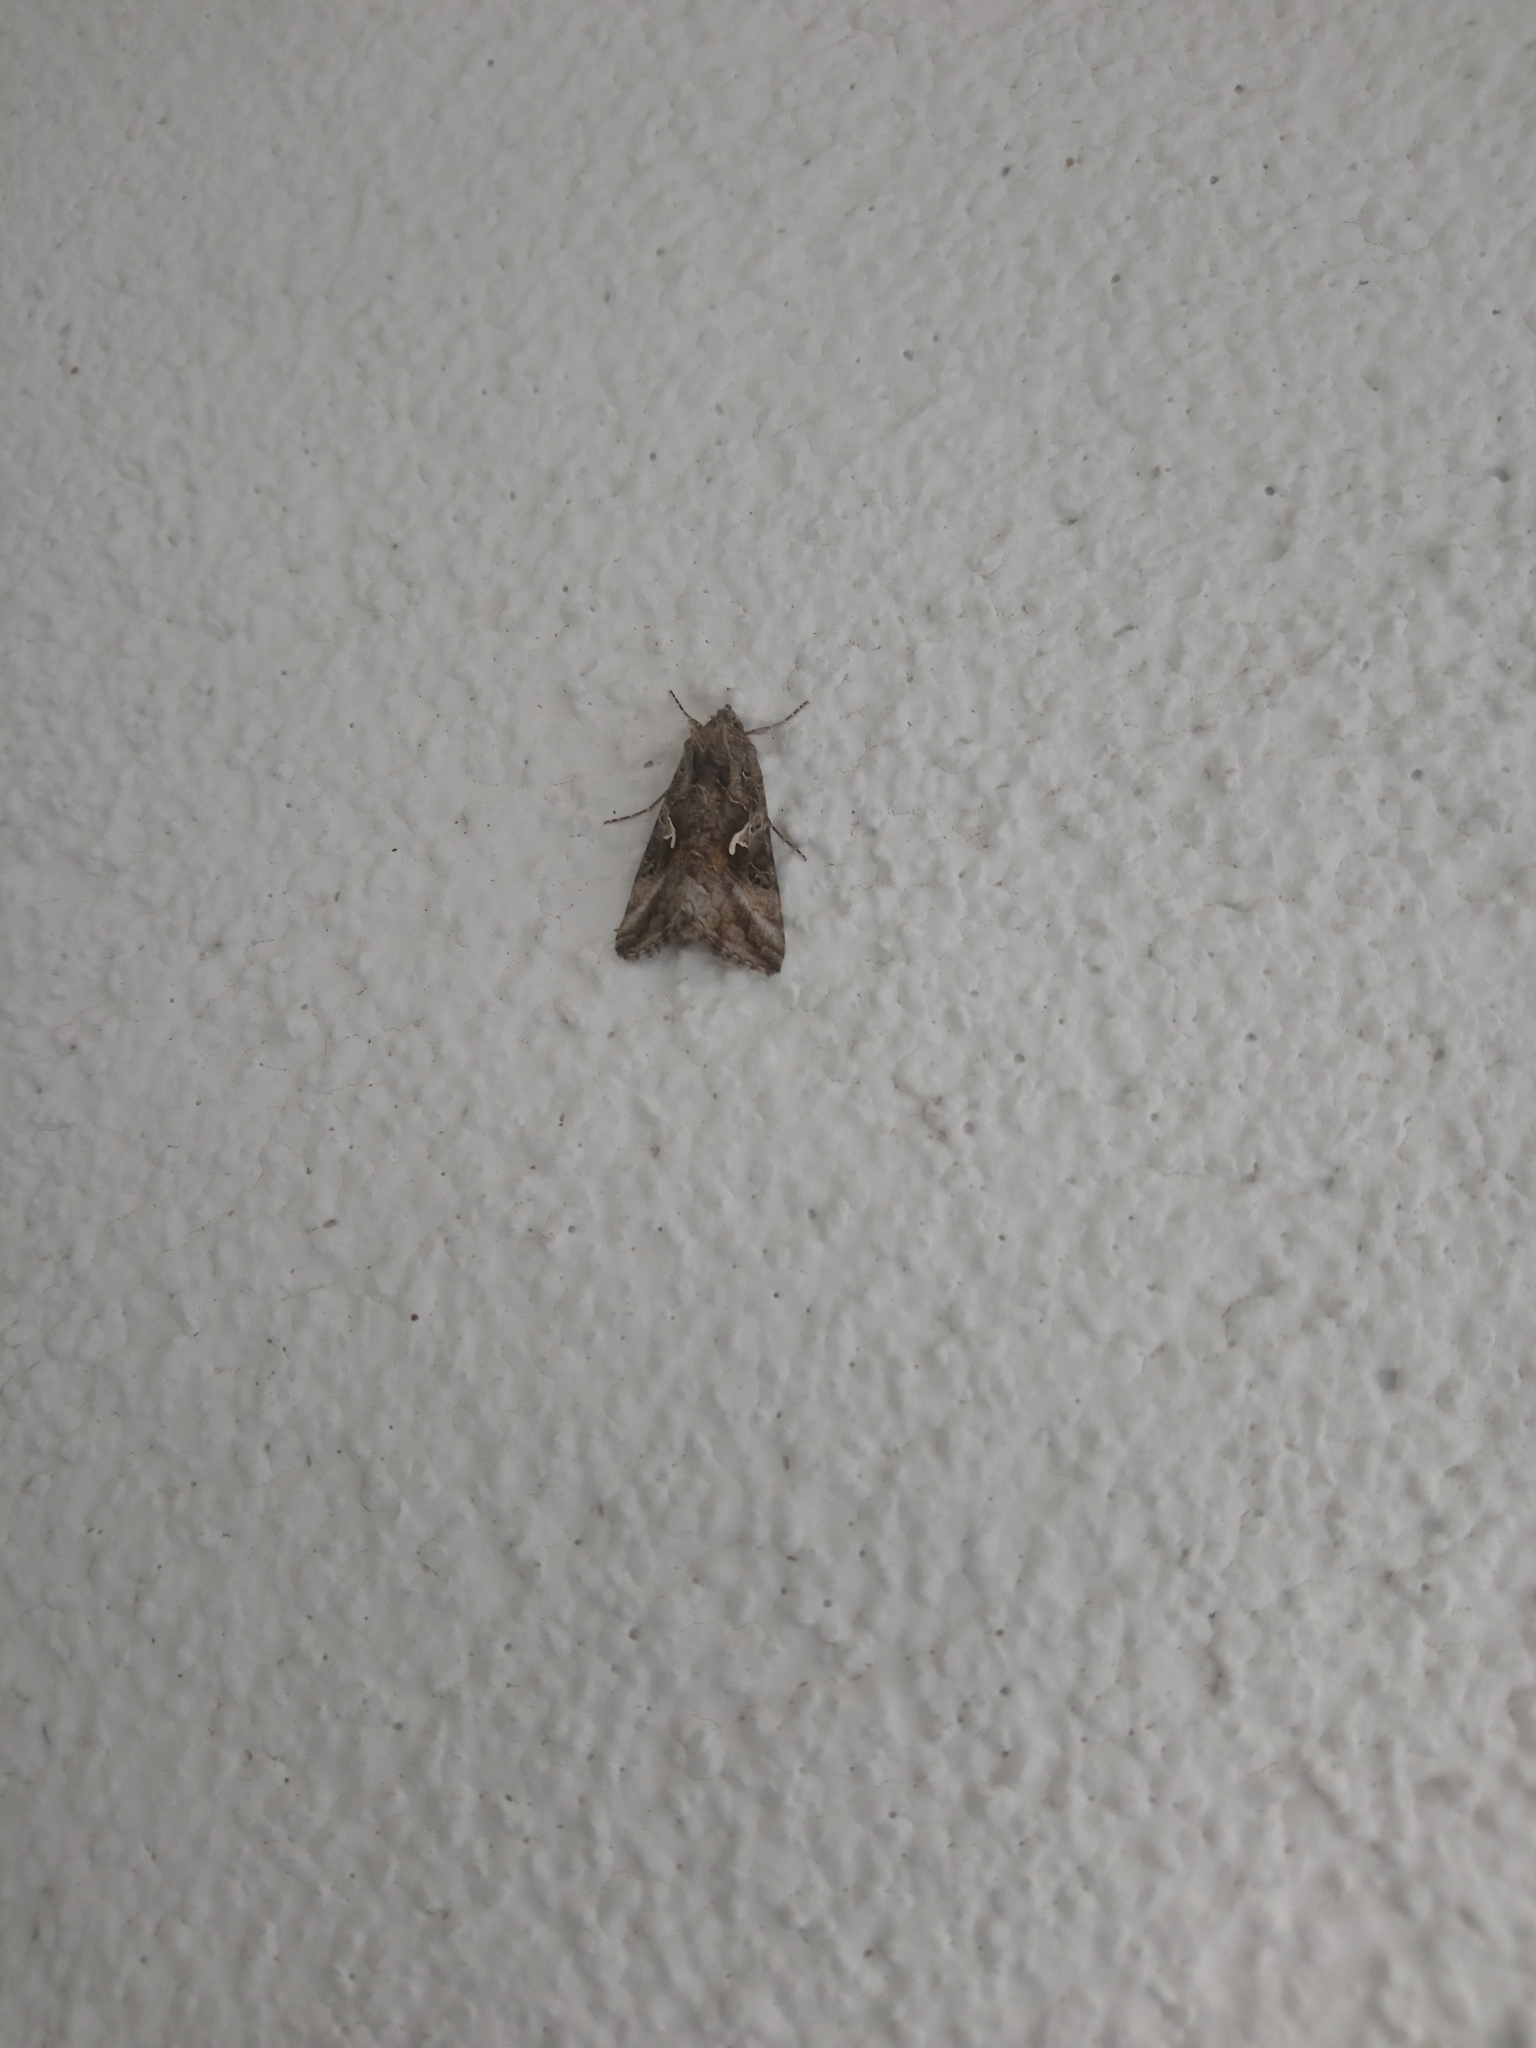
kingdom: Animalia
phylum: Arthropoda
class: Insecta
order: Lepidoptera
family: Noctuidae
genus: Autographa
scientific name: Autographa gamma
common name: Silver y
